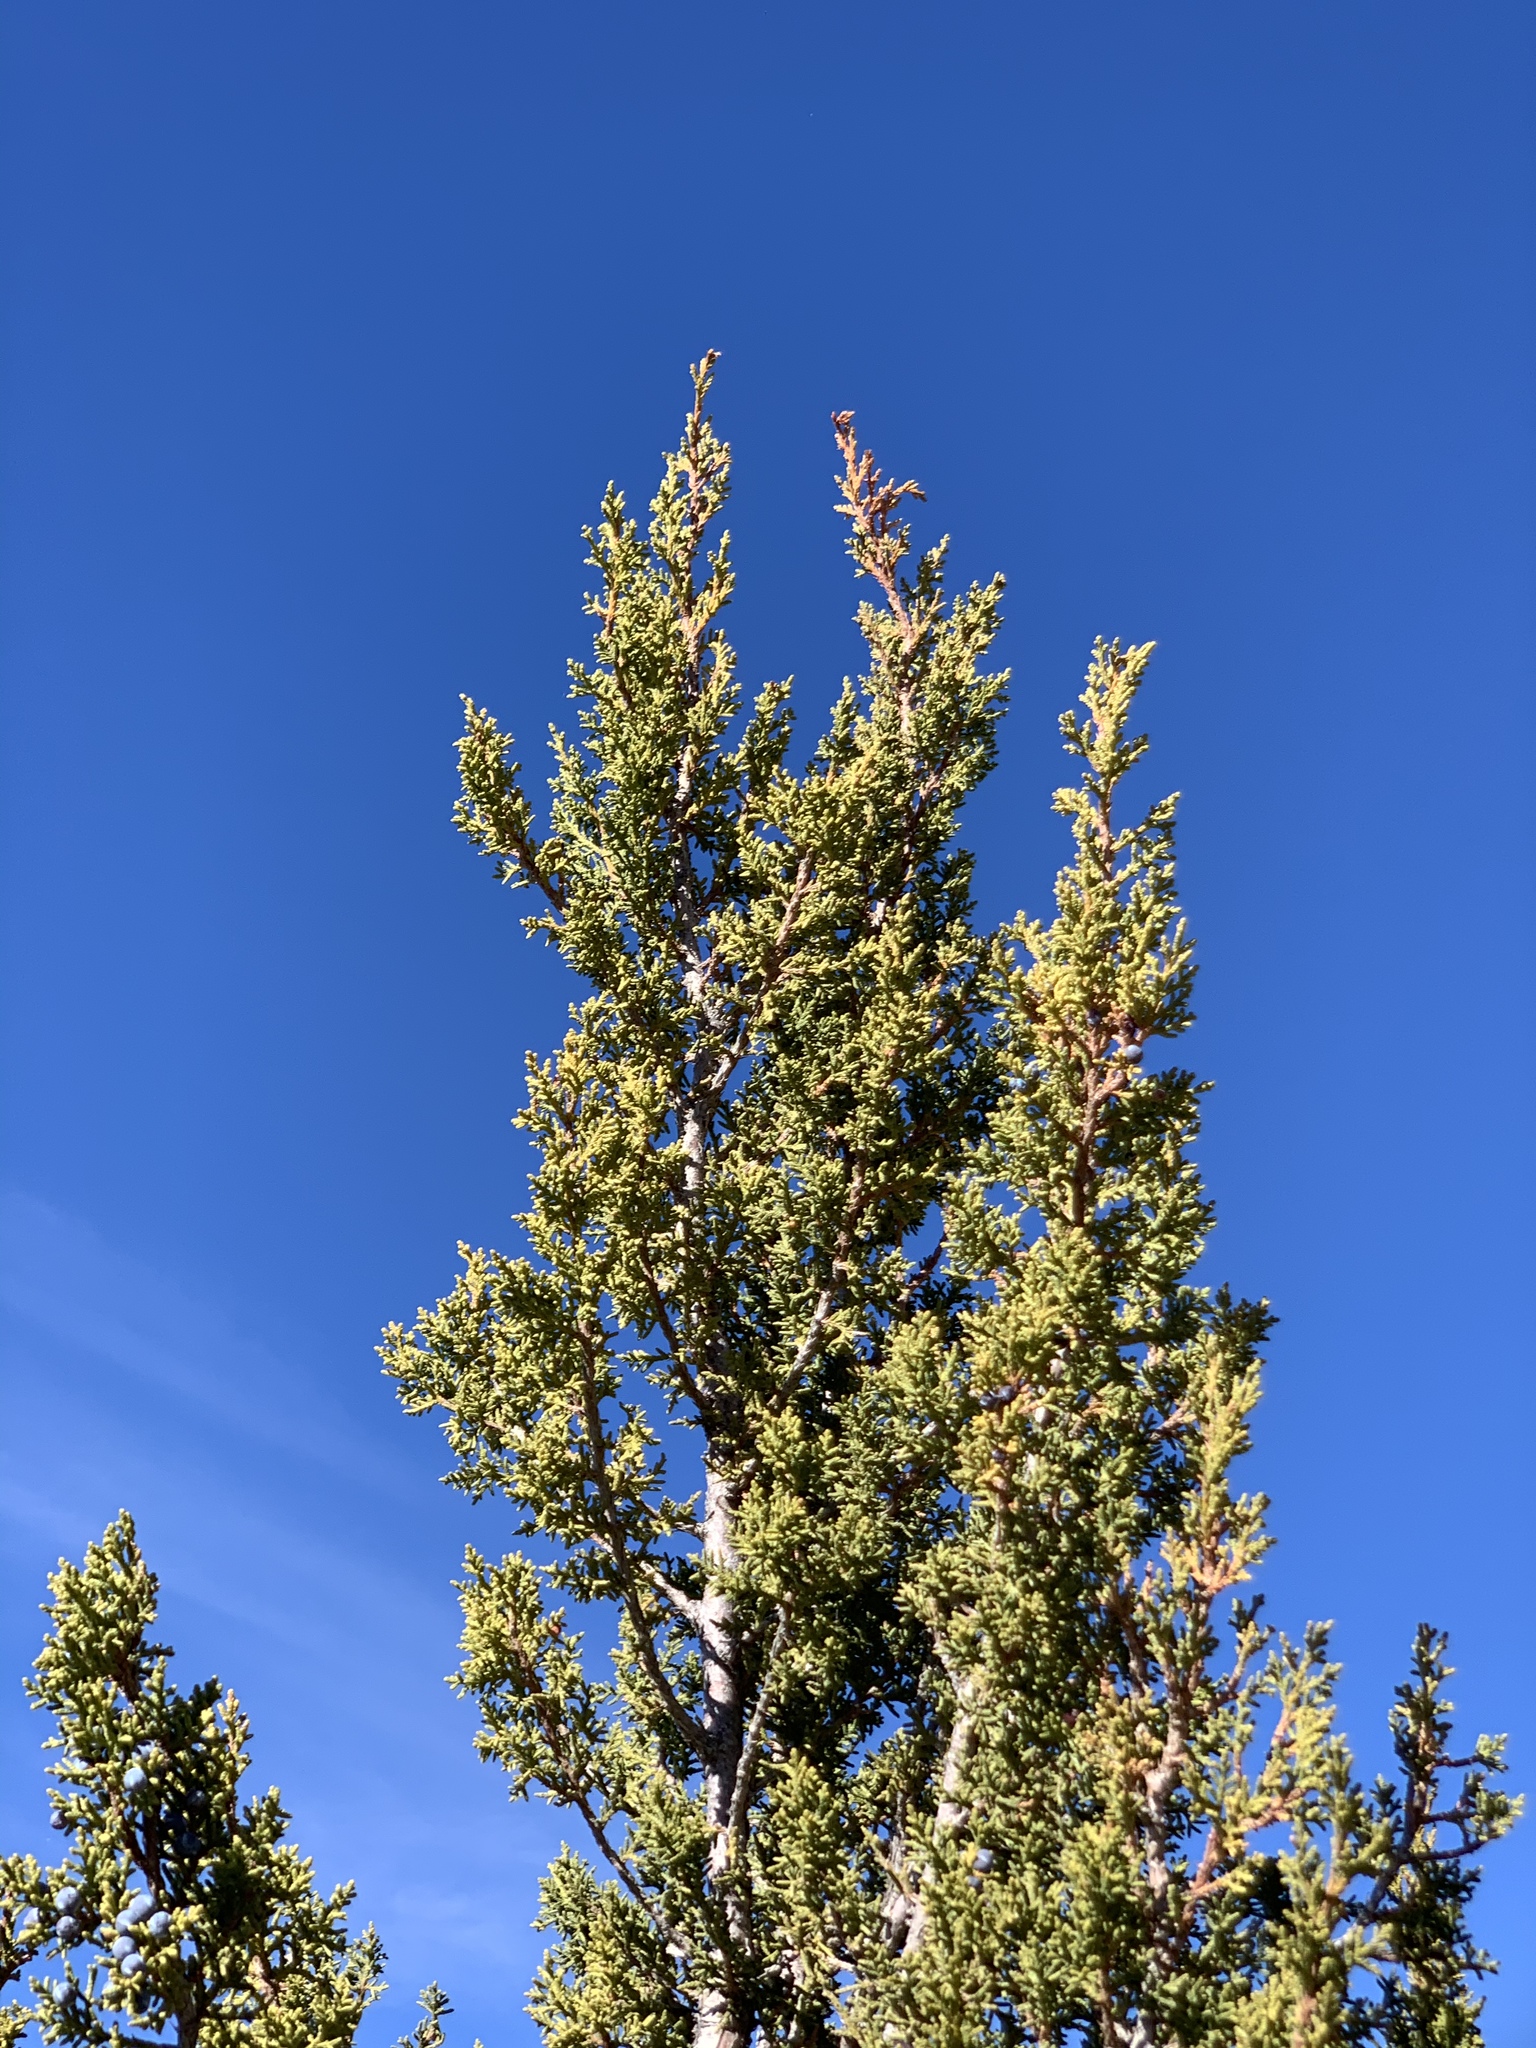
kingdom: Plantae
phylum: Tracheophyta
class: Pinopsida
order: Pinales
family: Cupressaceae
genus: Juniperus
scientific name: Juniperus monosperma
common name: One-seed juniper
